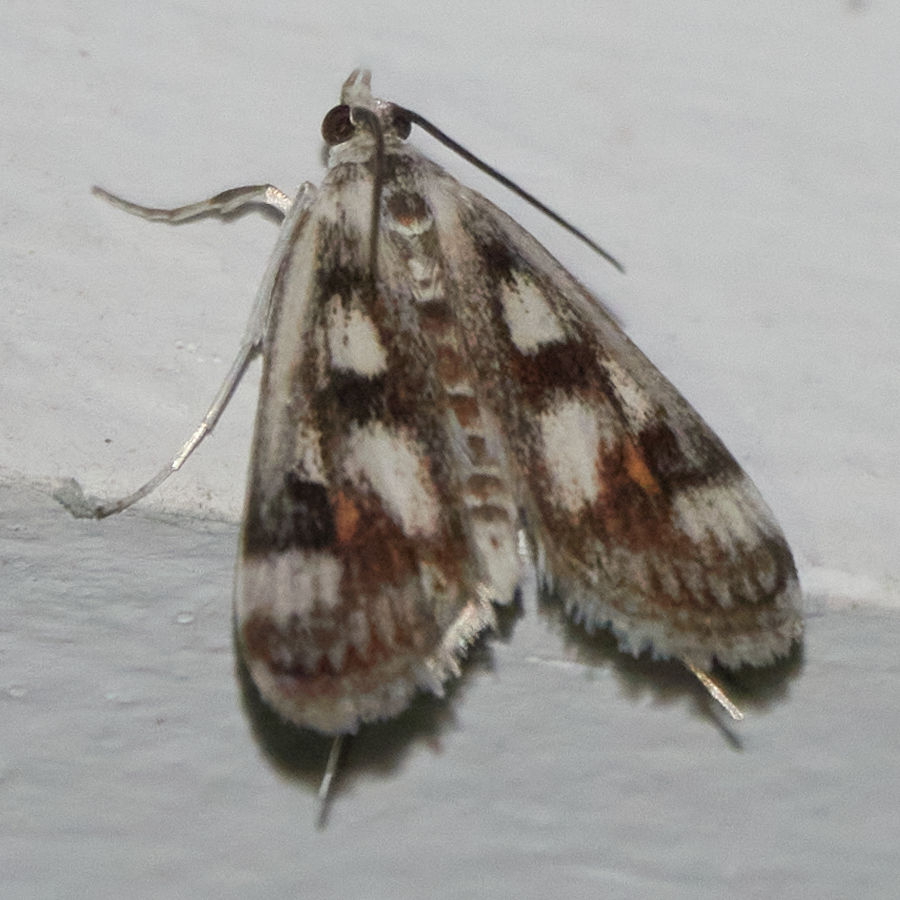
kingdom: Animalia
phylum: Arthropoda
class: Insecta
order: Lepidoptera
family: Crambidae
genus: Parapoynx
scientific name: Parapoynx maculalis
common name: Polymorphic pondweed moth
